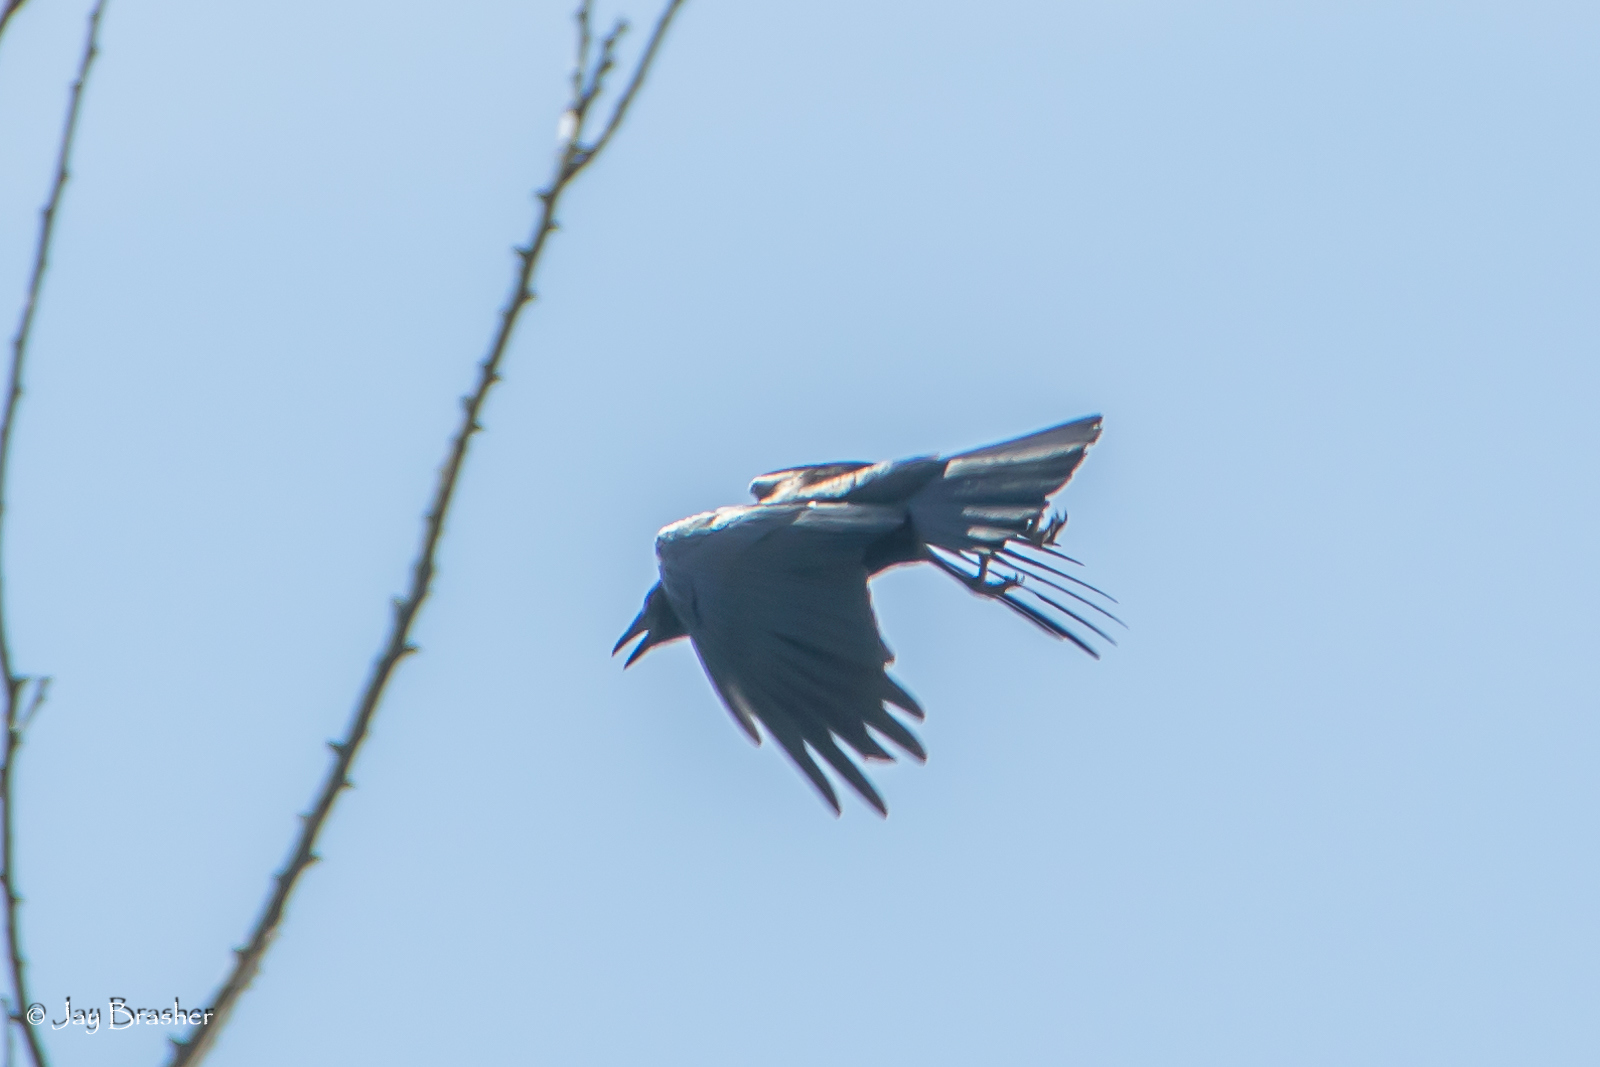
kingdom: Animalia
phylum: Chordata
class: Aves
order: Passeriformes
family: Corvidae
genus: Corvus
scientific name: Corvus brachyrhynchos
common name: American crow
